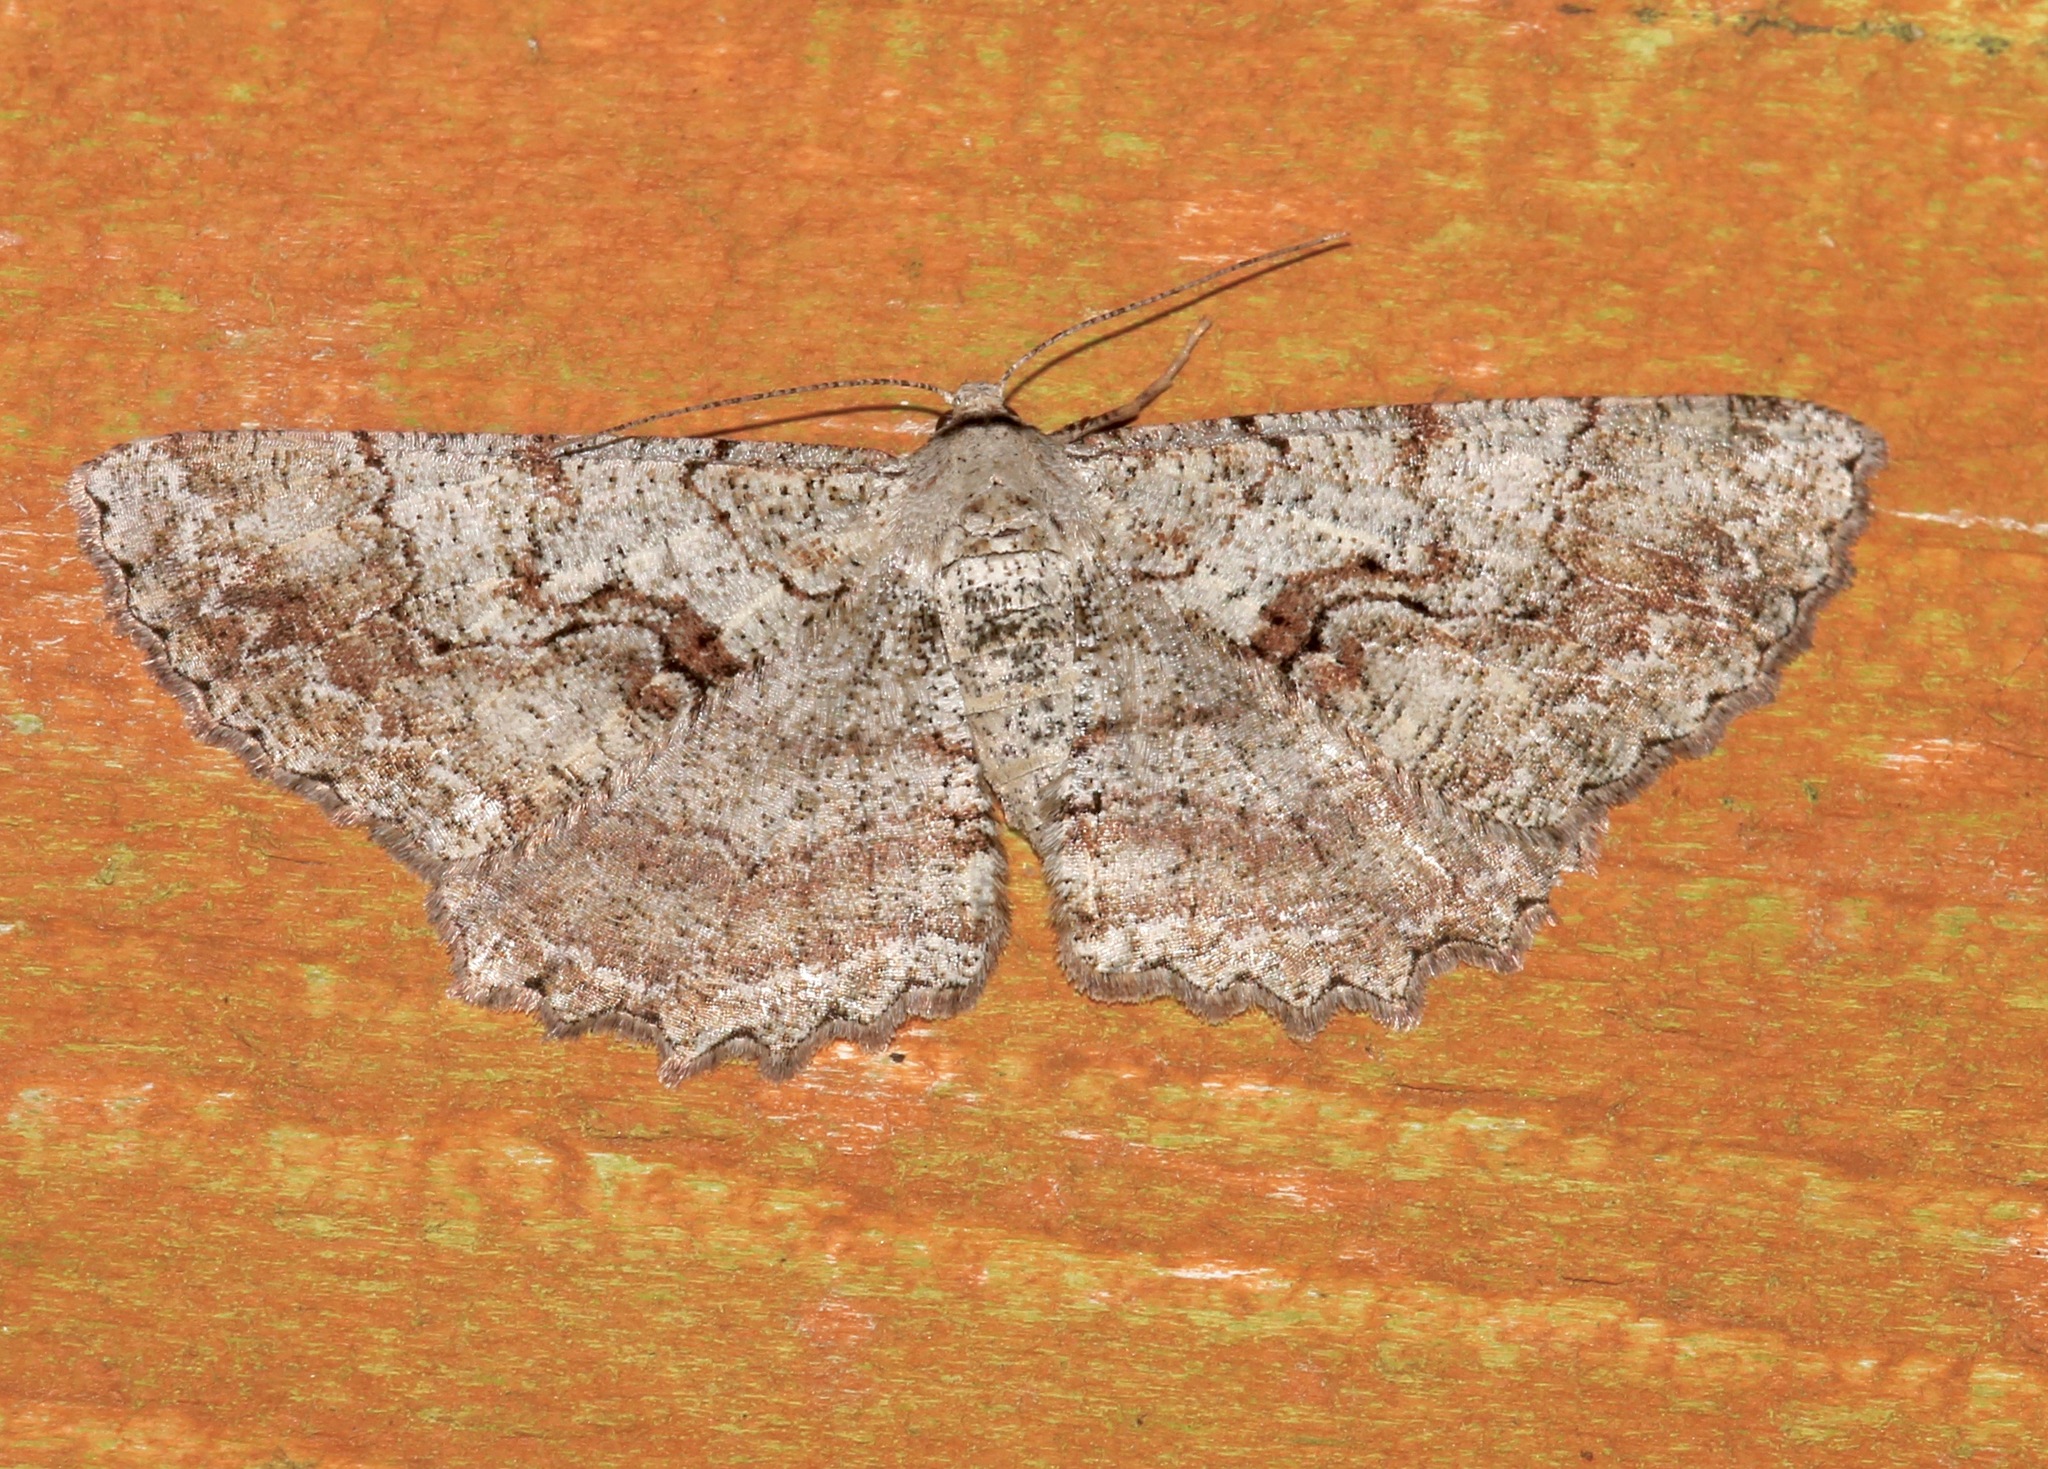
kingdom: Animalia
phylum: Arthropoda
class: Insecta
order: Lepidoptera
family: Geometridae
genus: Cymatophora
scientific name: Cymatophora approximaria
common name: Giant gray moth
